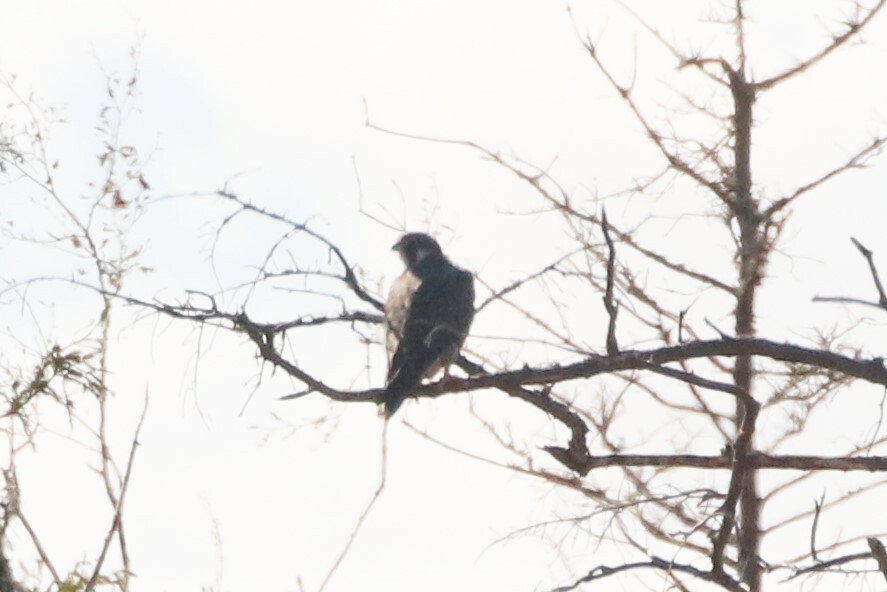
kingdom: Animalia
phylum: Chordata
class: Aves
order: Falconiformes
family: Falconidae
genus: Falco
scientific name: Falco peregrinus
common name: Peregrine falcon
